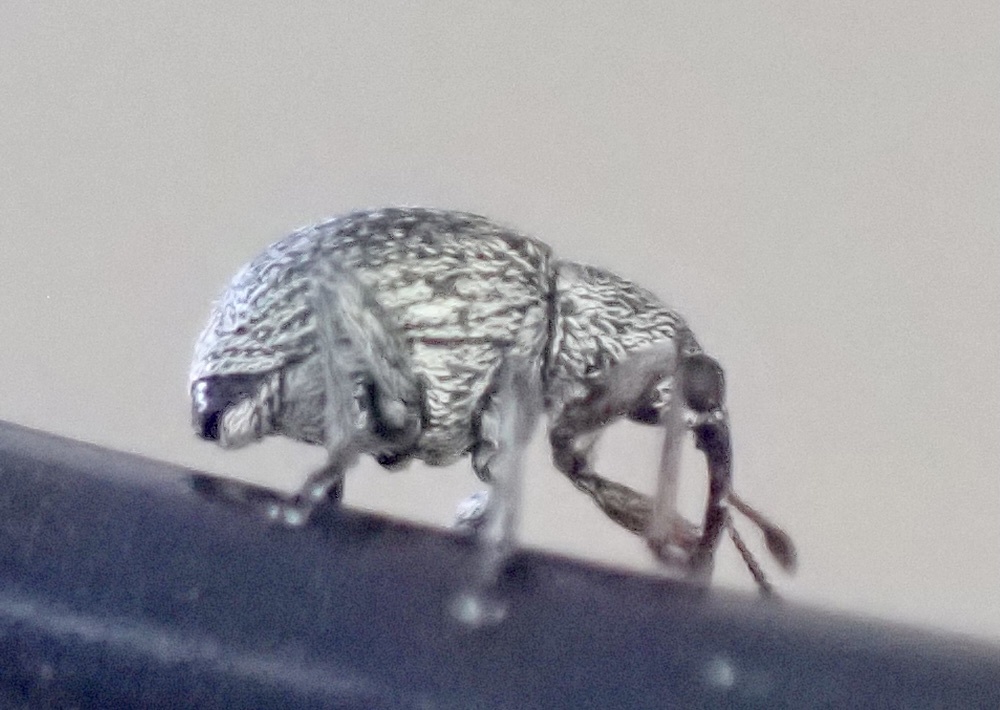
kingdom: Animalia
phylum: Arthropoda
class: Insecta
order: Coleoptera
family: Brentidae
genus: Exapion
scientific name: Exapion ulicis
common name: Gorse seed weevil
